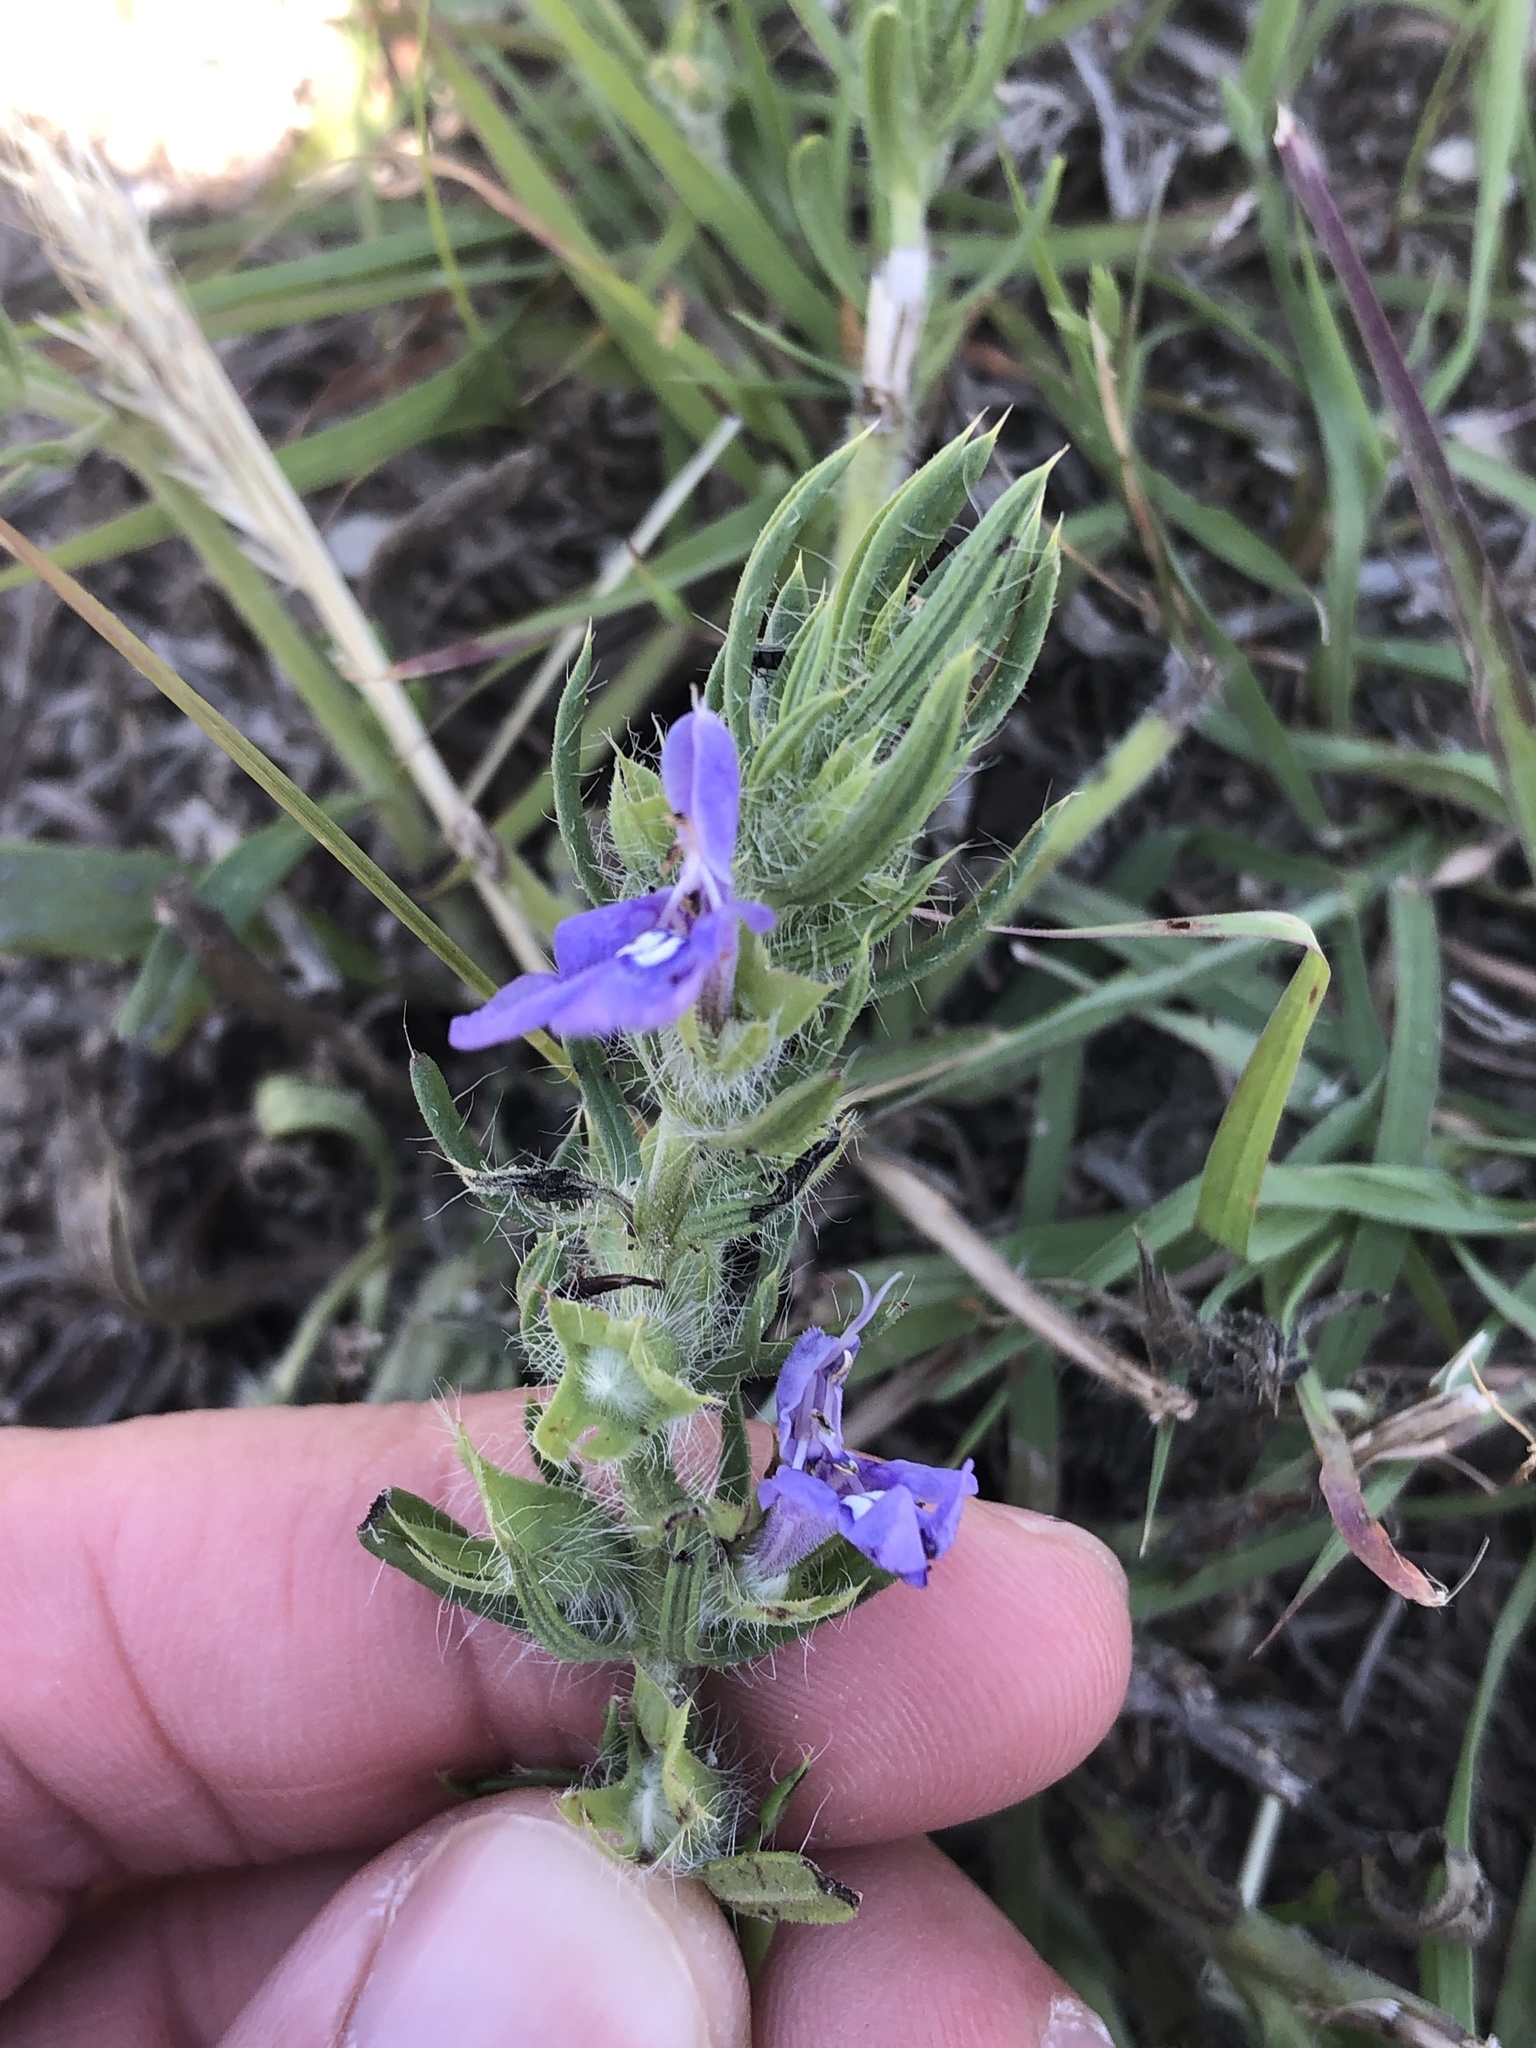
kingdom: Plantae
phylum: Tracheophyta
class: Magnoliopsida
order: Lamiales
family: Lamiaceae
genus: Salvia
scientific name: Salvia texana
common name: Texas sage
